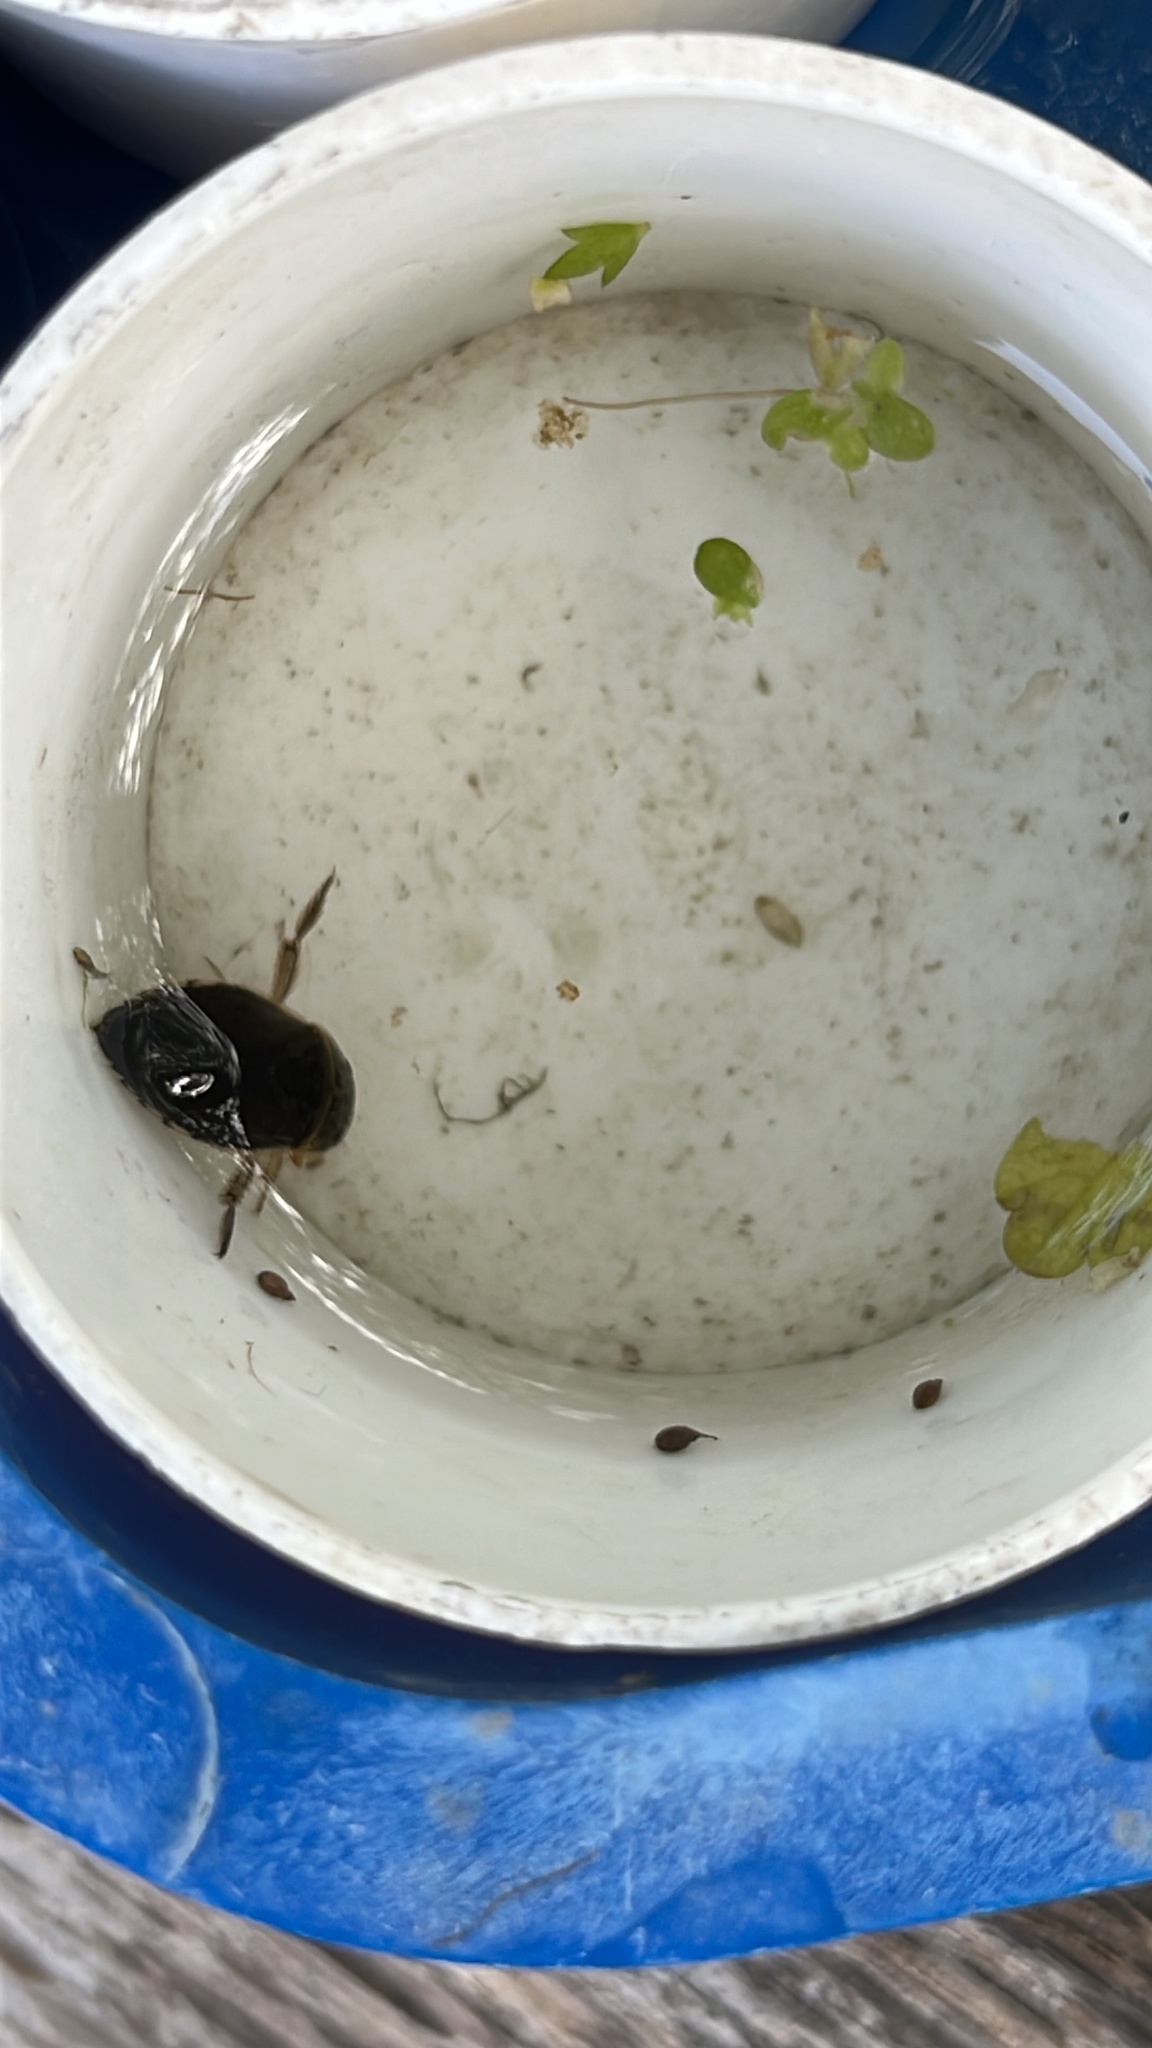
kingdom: Animalia
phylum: Arthropoda
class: Insecta
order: Hemiptera
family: Naucoridae
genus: Ilyocoris
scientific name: Ilyocoris cimicoides
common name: Saucer bugs
